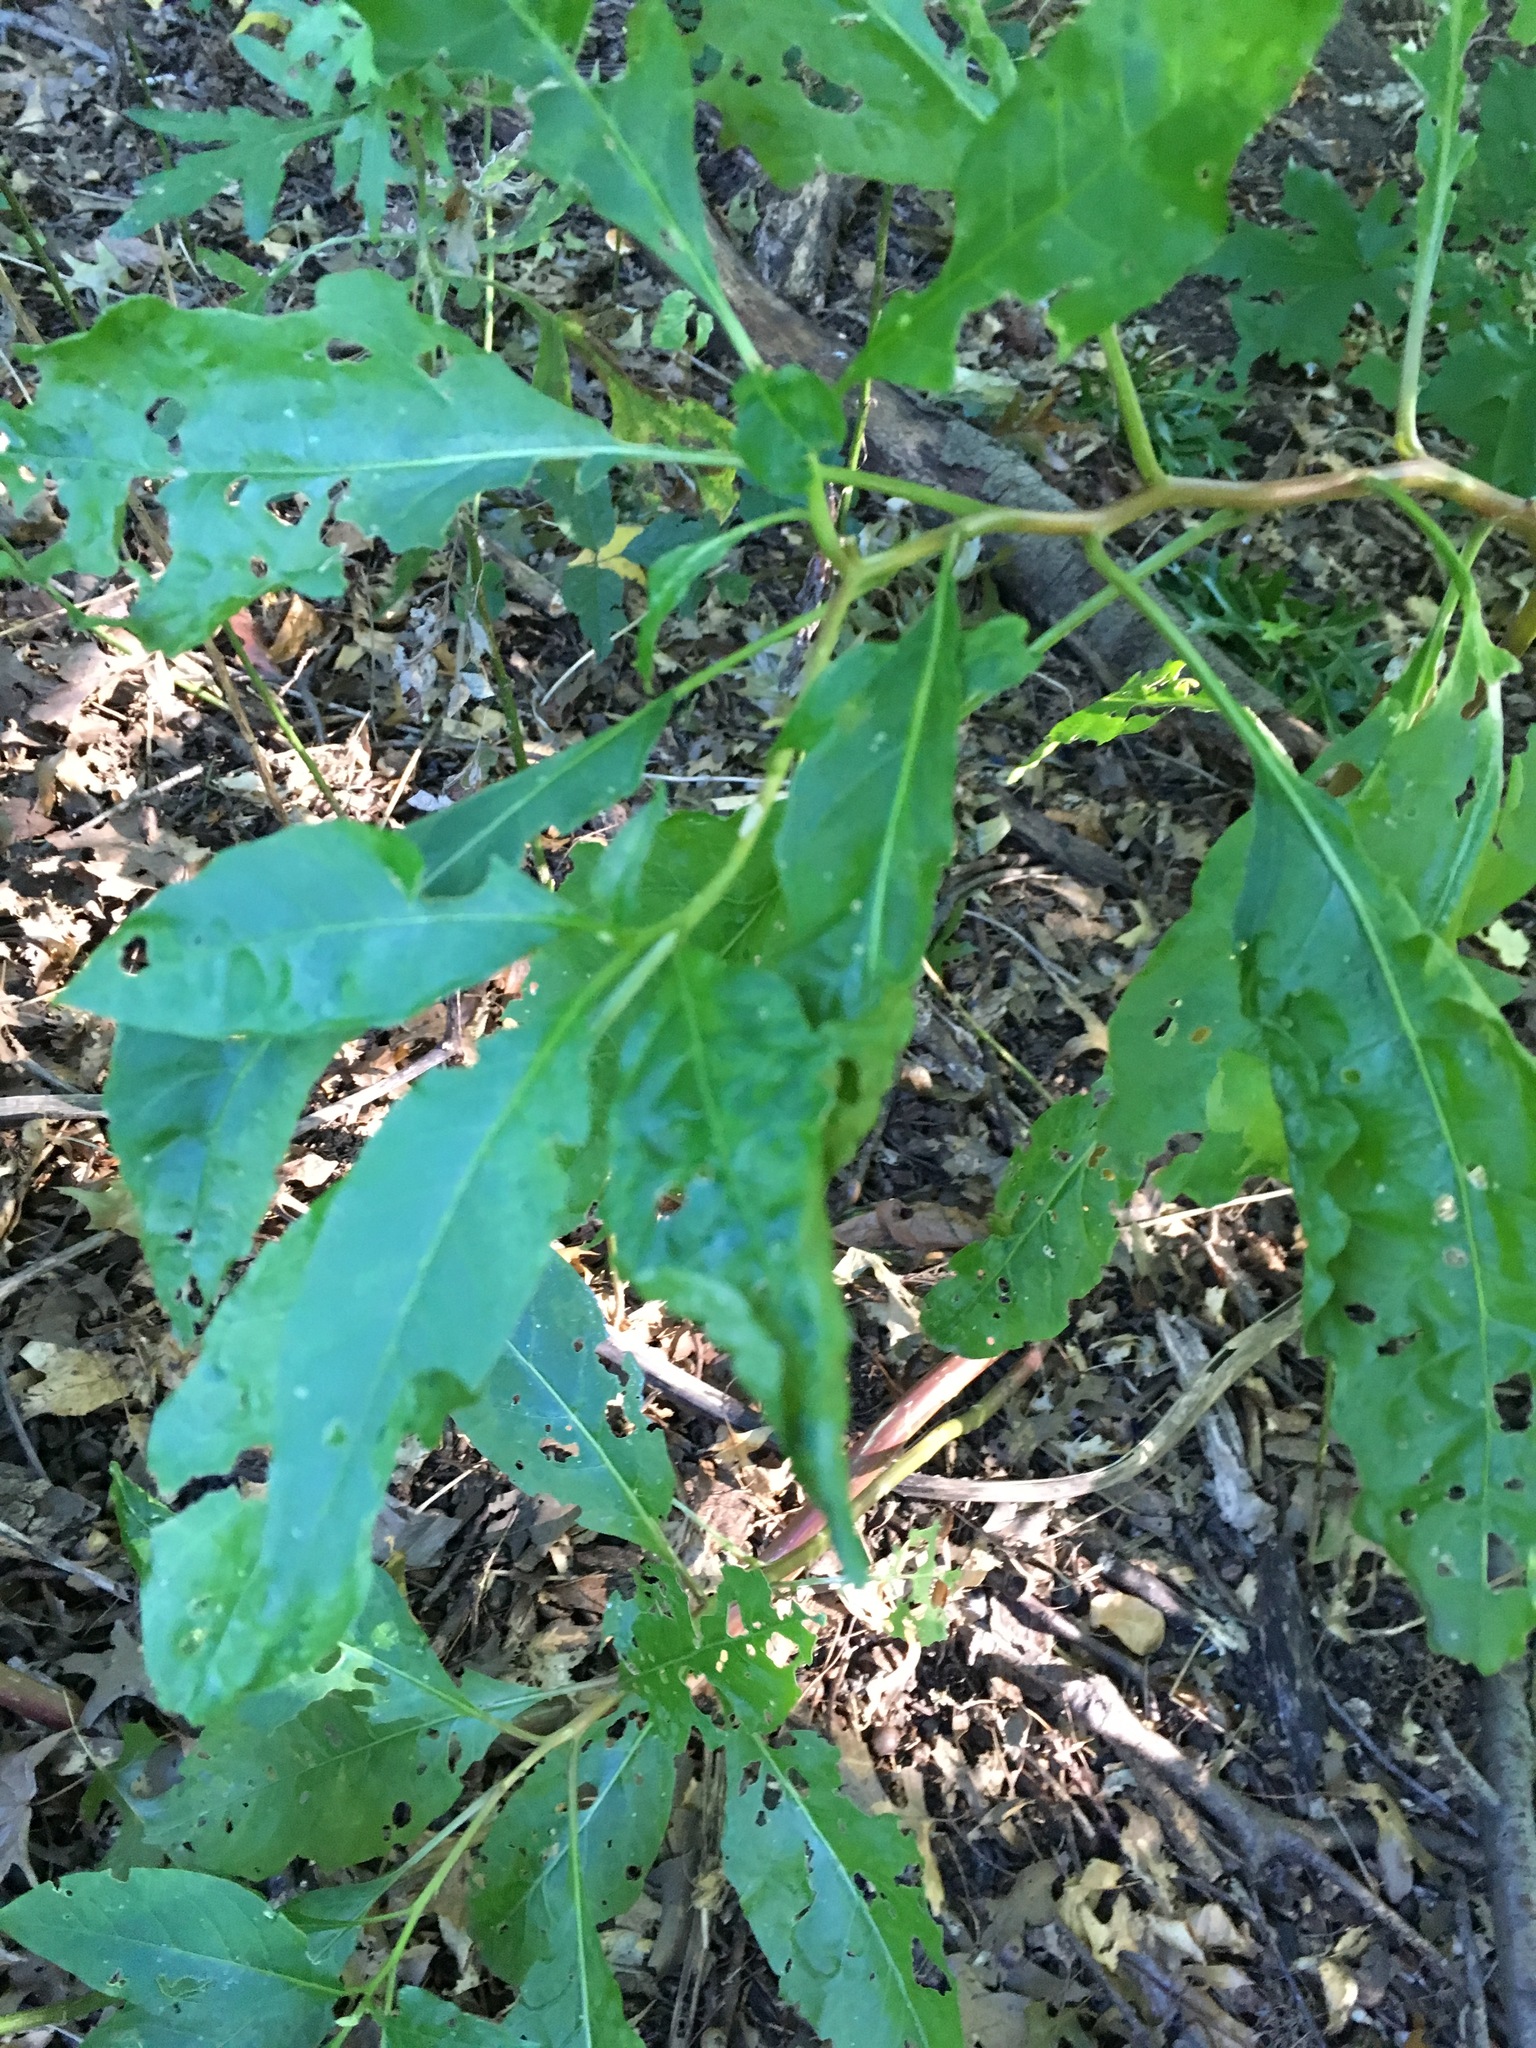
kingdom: Plantae
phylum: Tracheophyta
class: Magnoliopsida
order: Caryophyllales
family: Phytolaccaceae
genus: Phytolacca
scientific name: Phytolacca americana
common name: American pokeweed
